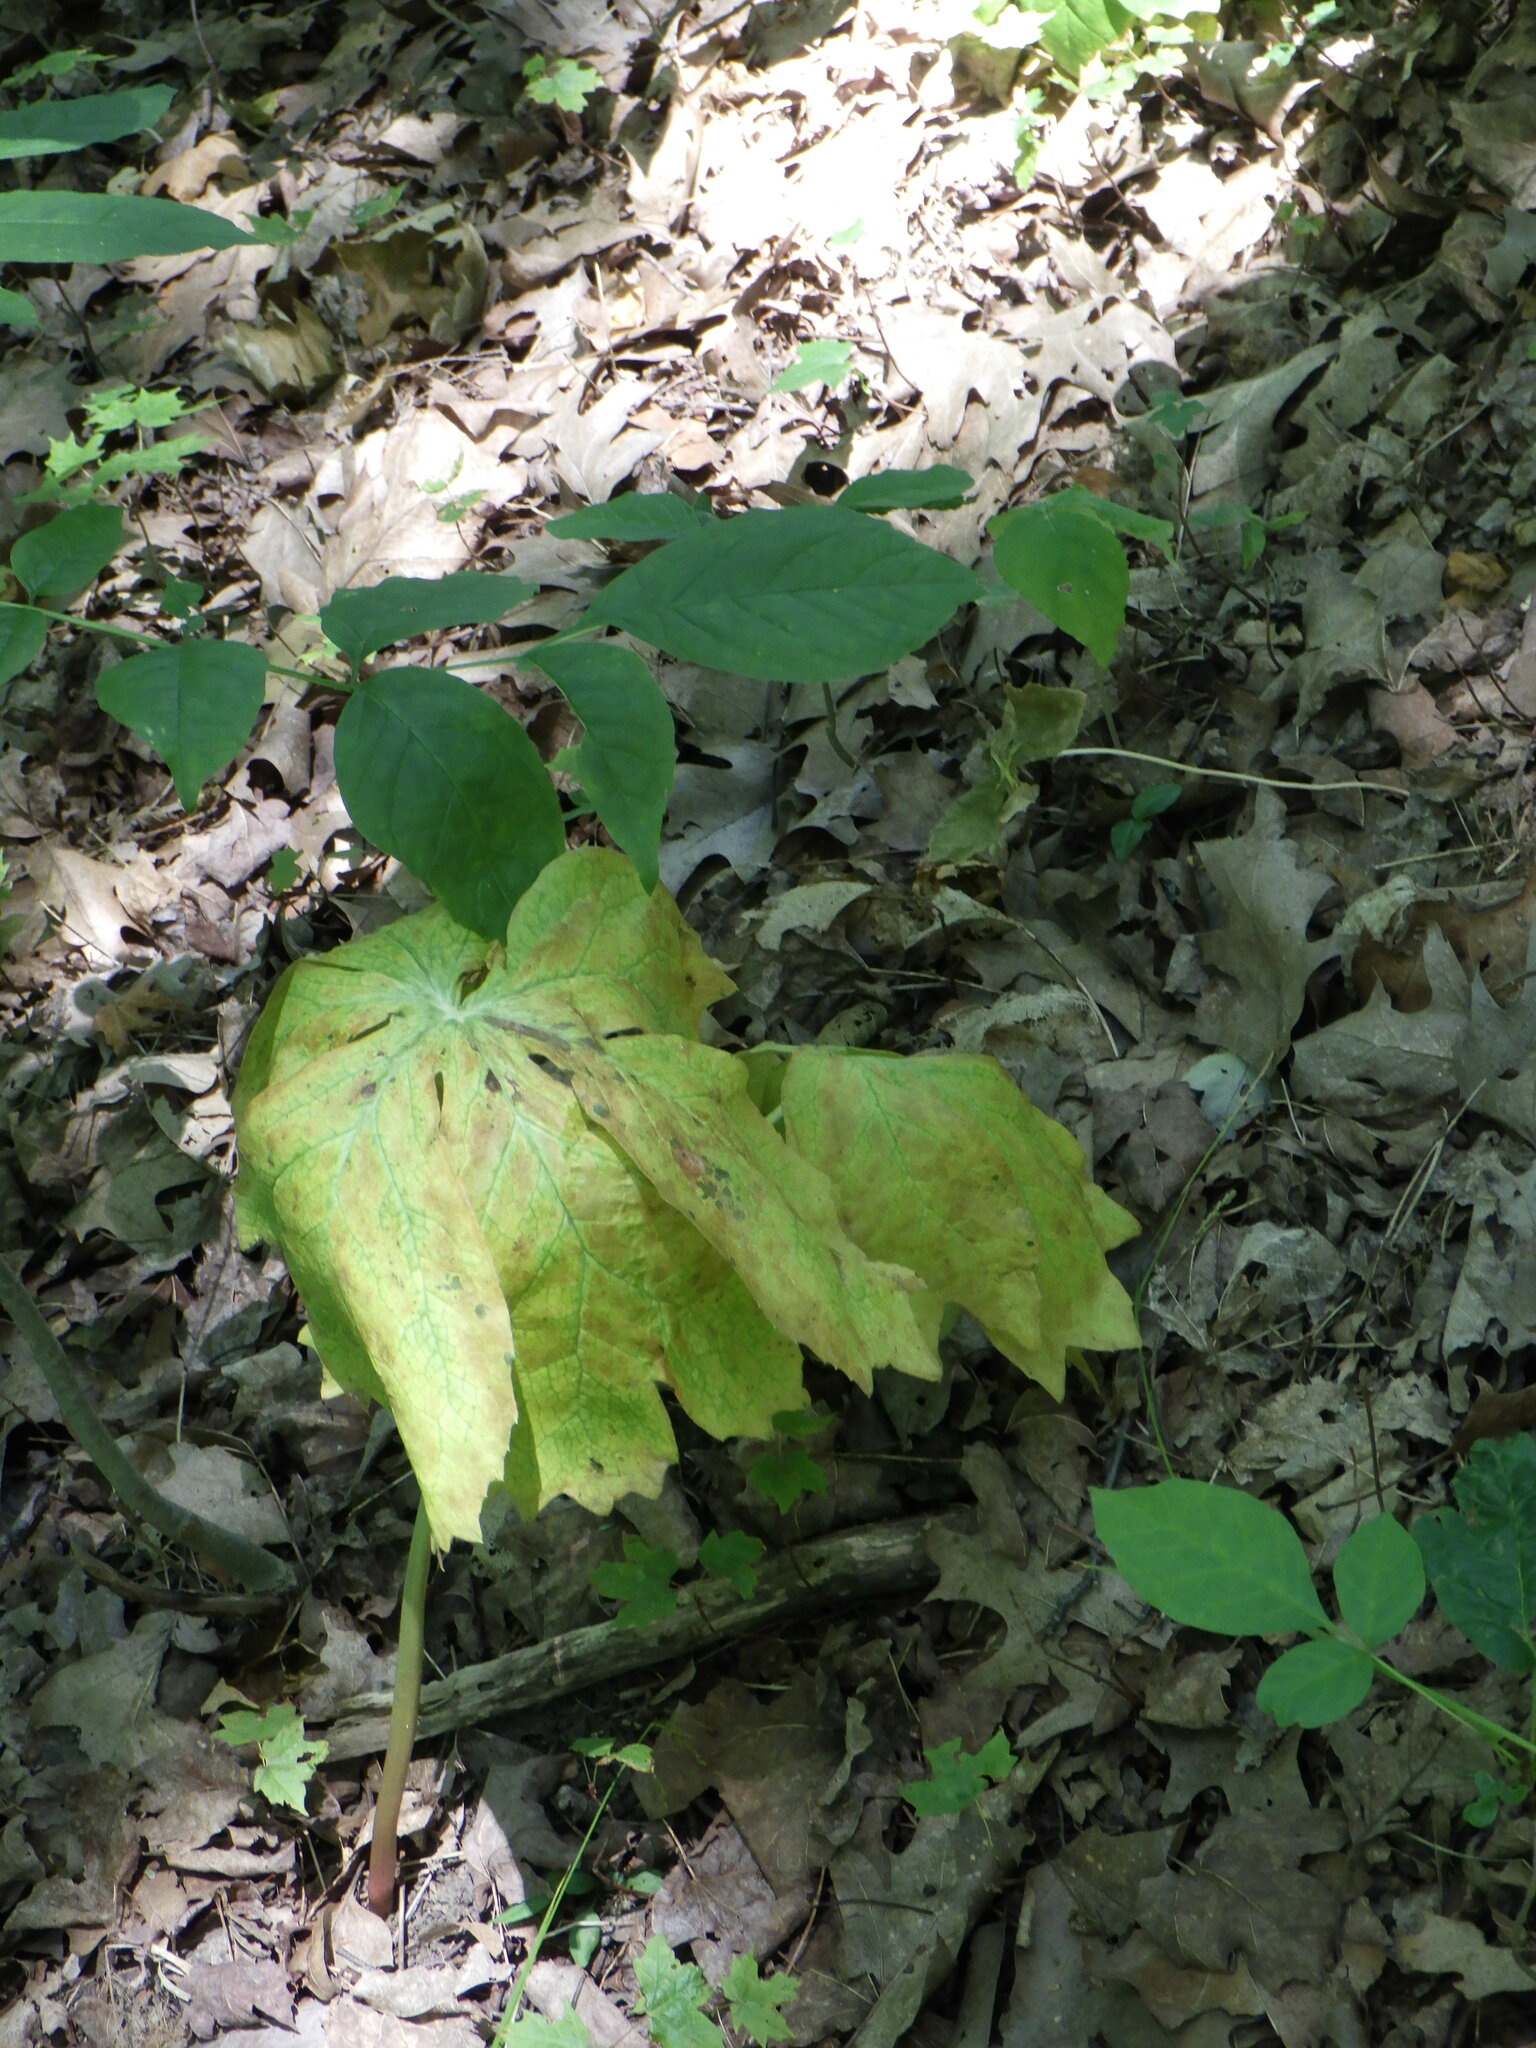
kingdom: Plantae
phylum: Tracheophyta
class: Magnoliopsida
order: Ranunculales
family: Berberidaceae
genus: Podophyllum
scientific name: Podophyllum peltatum
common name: Wild mandrake
